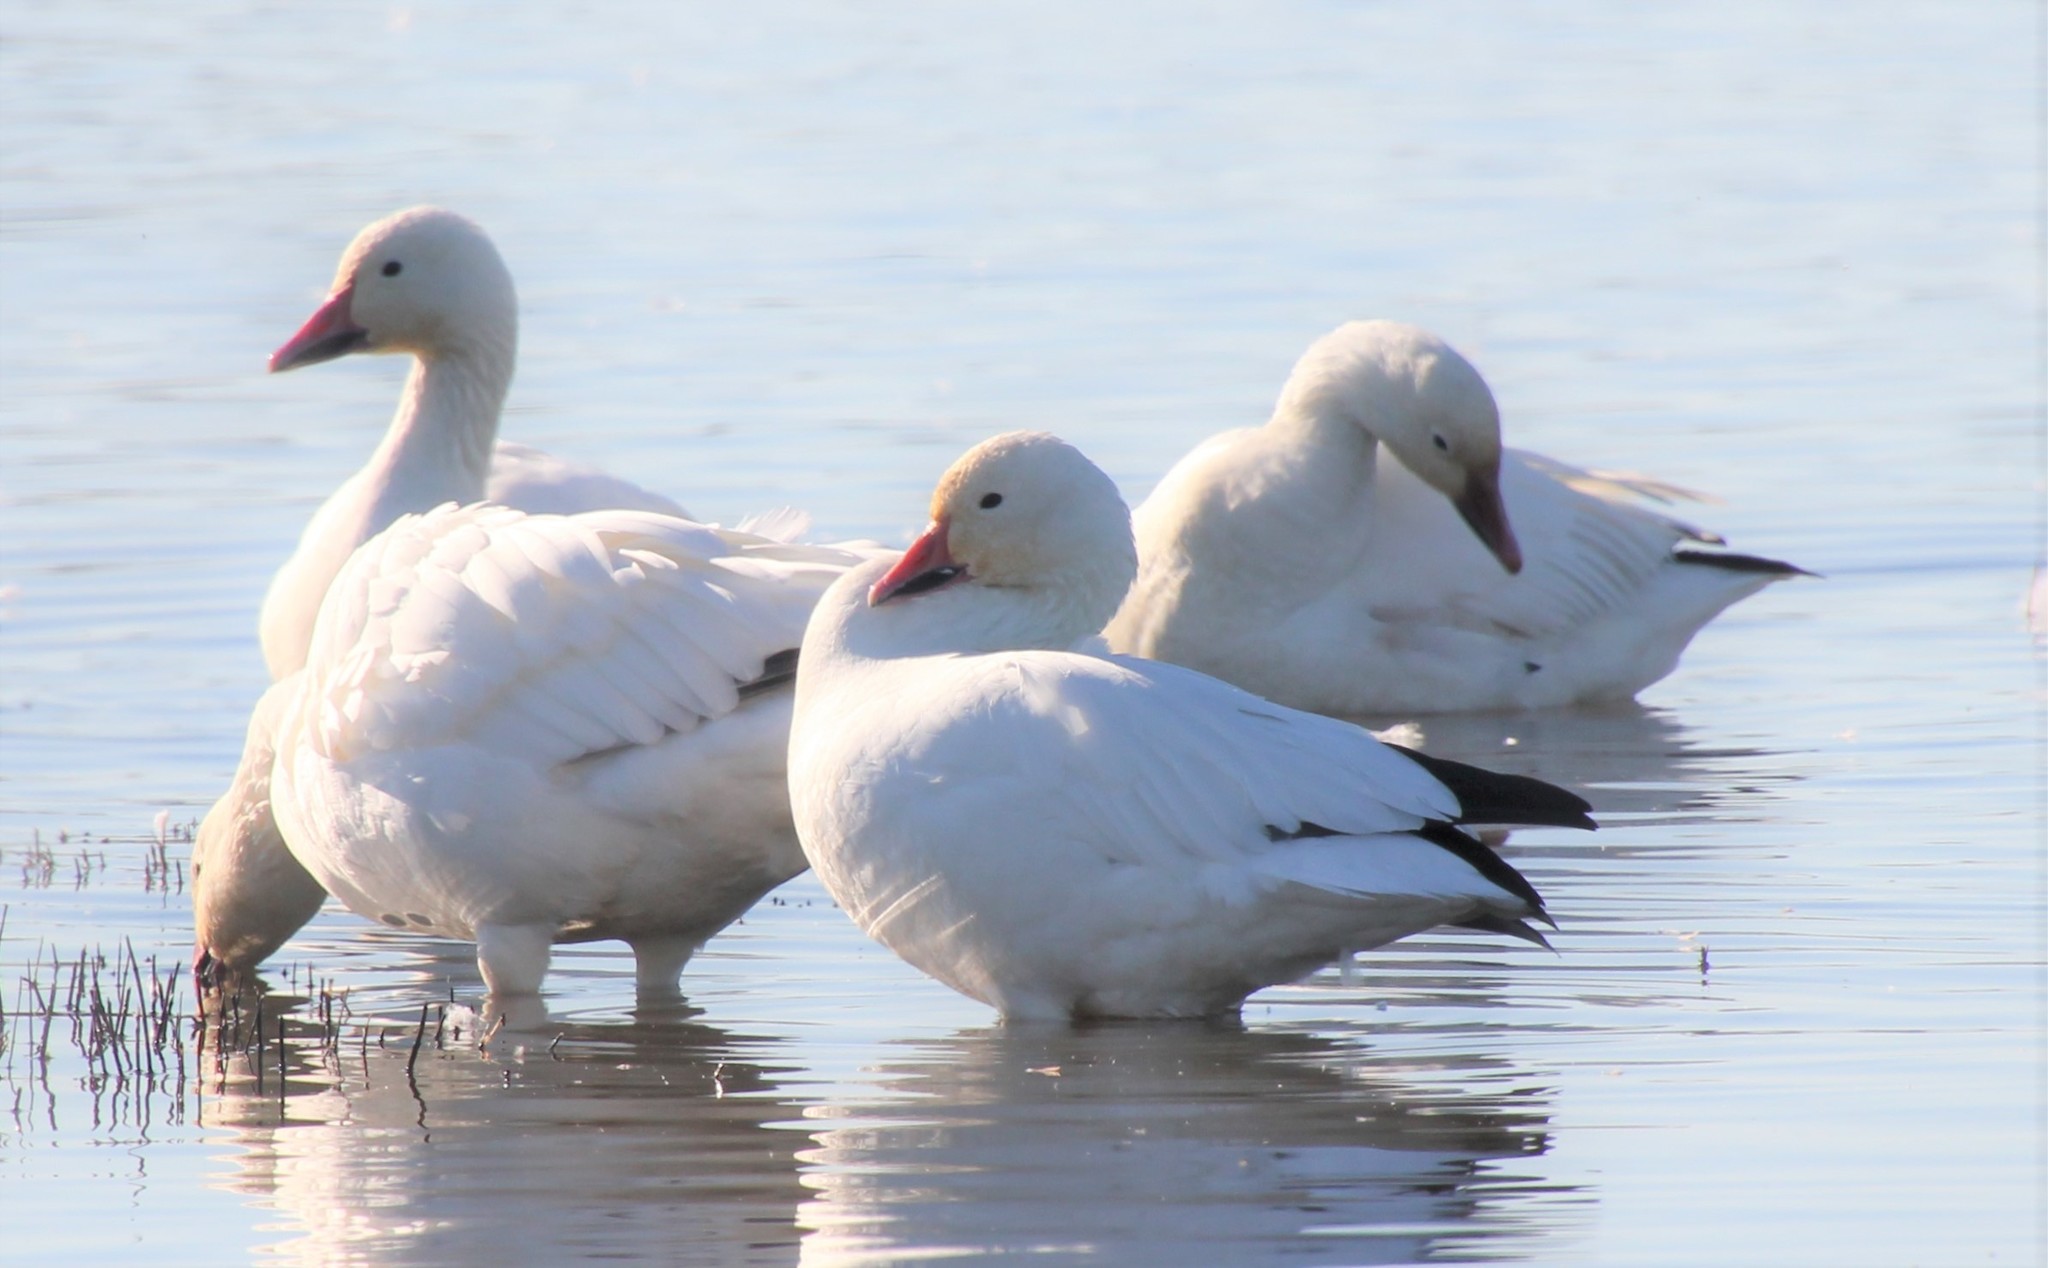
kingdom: Animalia
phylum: Chordata
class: Aves
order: Anseriformes
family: Anatidae
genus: Anser
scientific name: Anser caerulescens
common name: Snow goose
